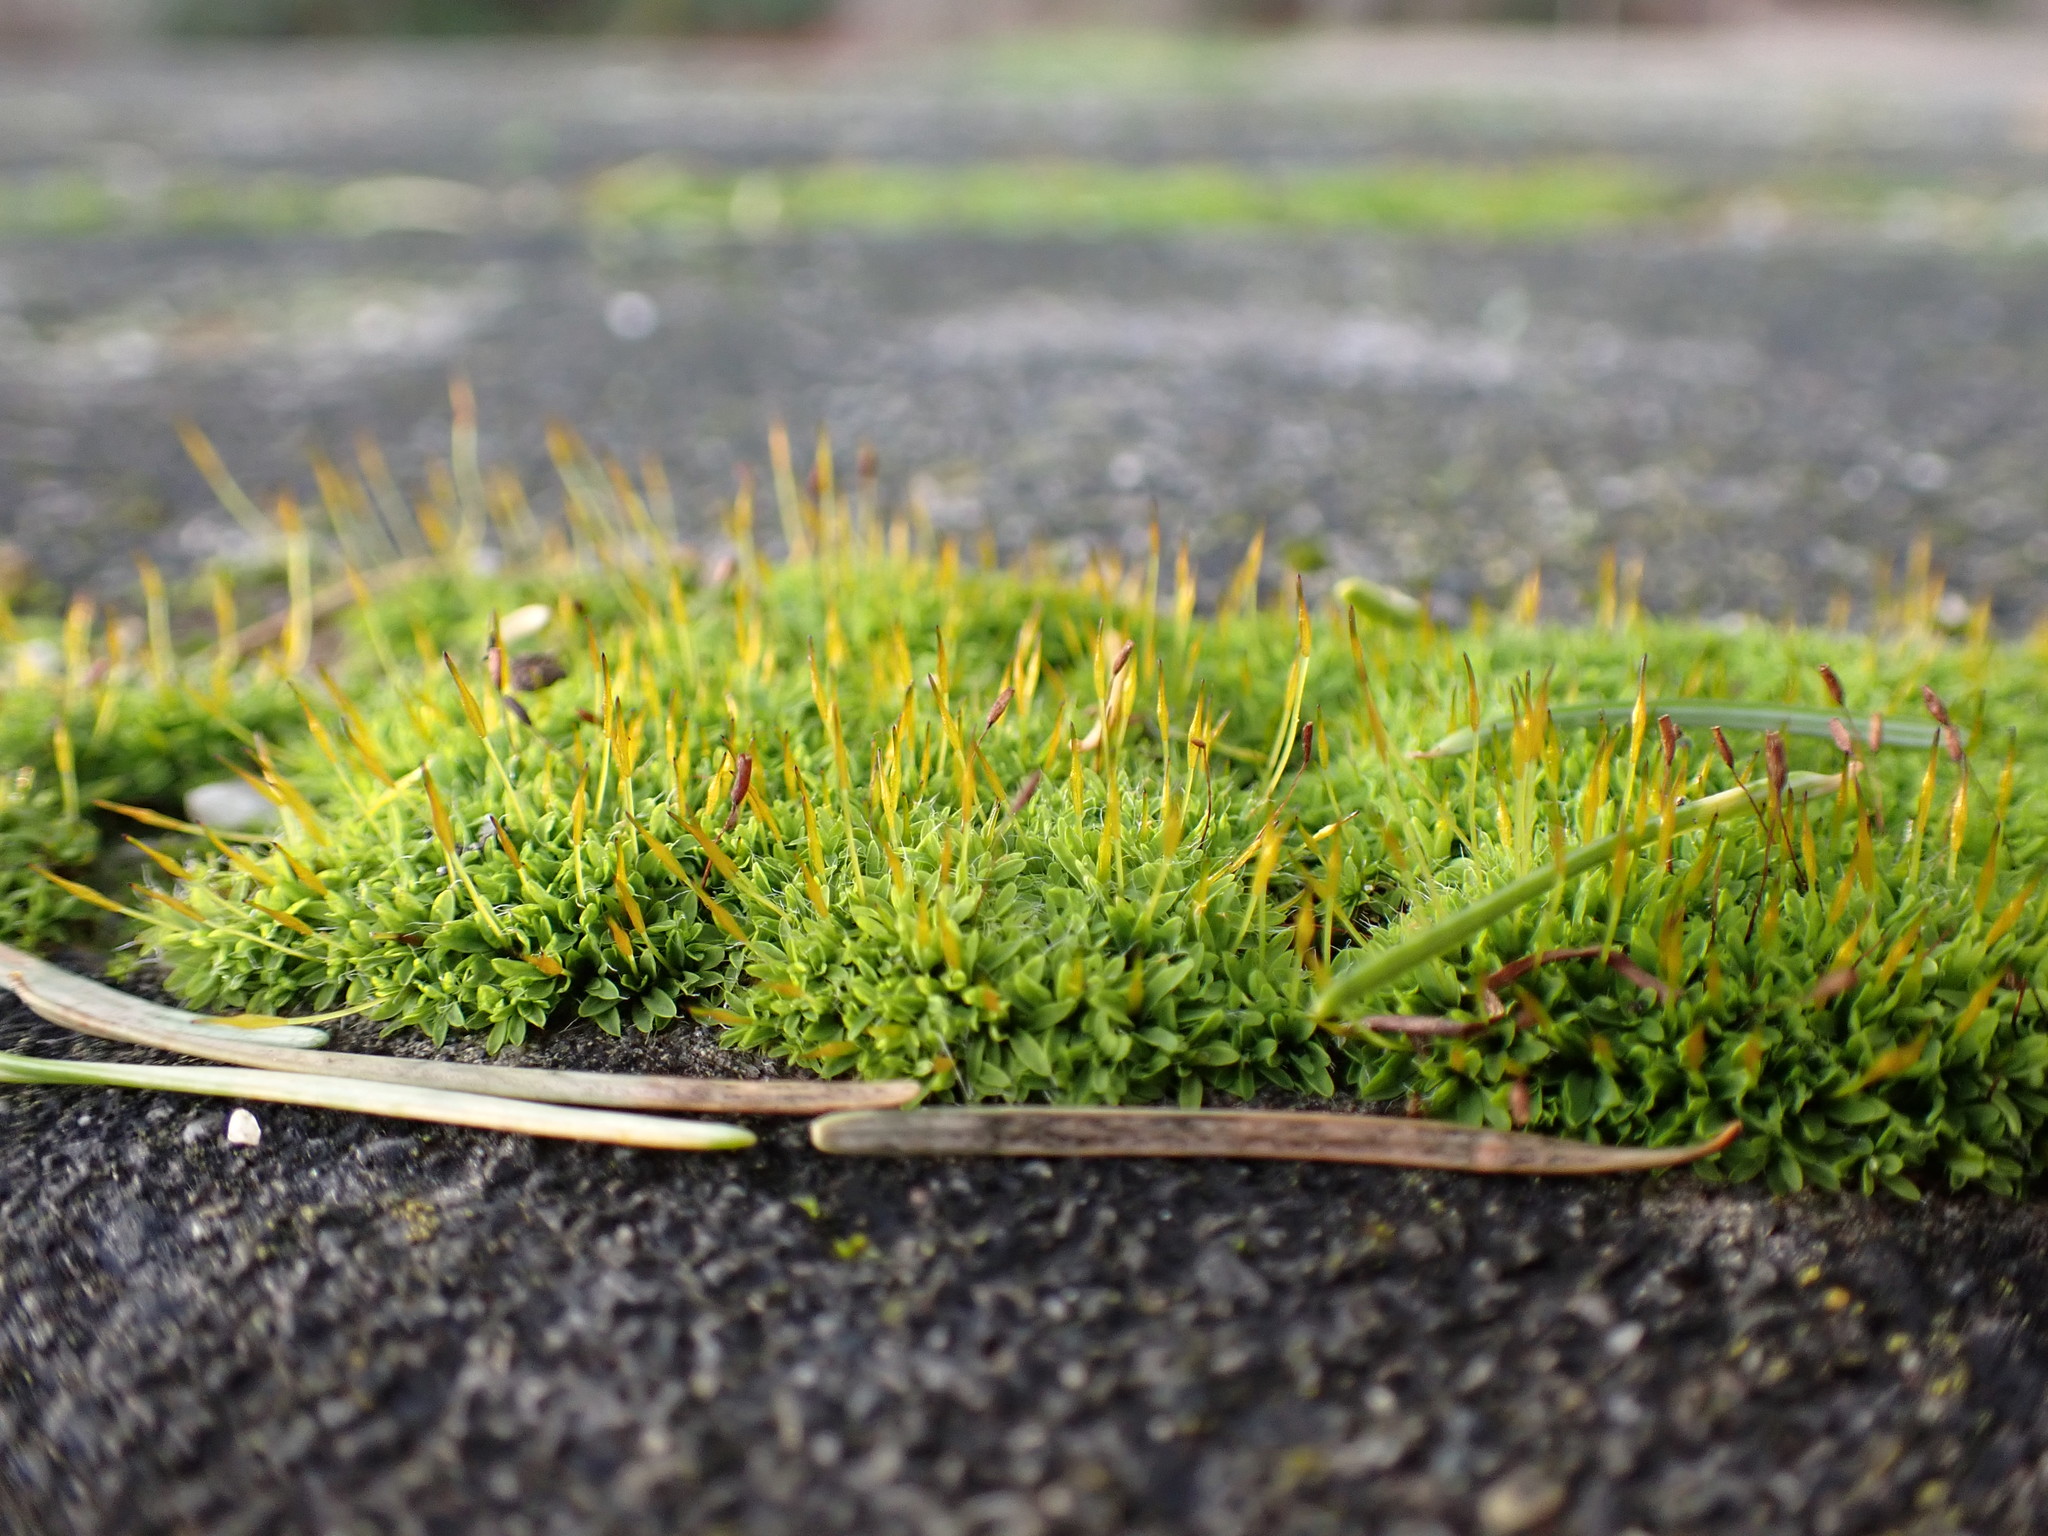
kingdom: Plantae
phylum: Bryophyta
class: Bryopsida
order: Pottiales
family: Pottiaceae
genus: Tortula
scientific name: Tortula muralis
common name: Wall screw-moss
